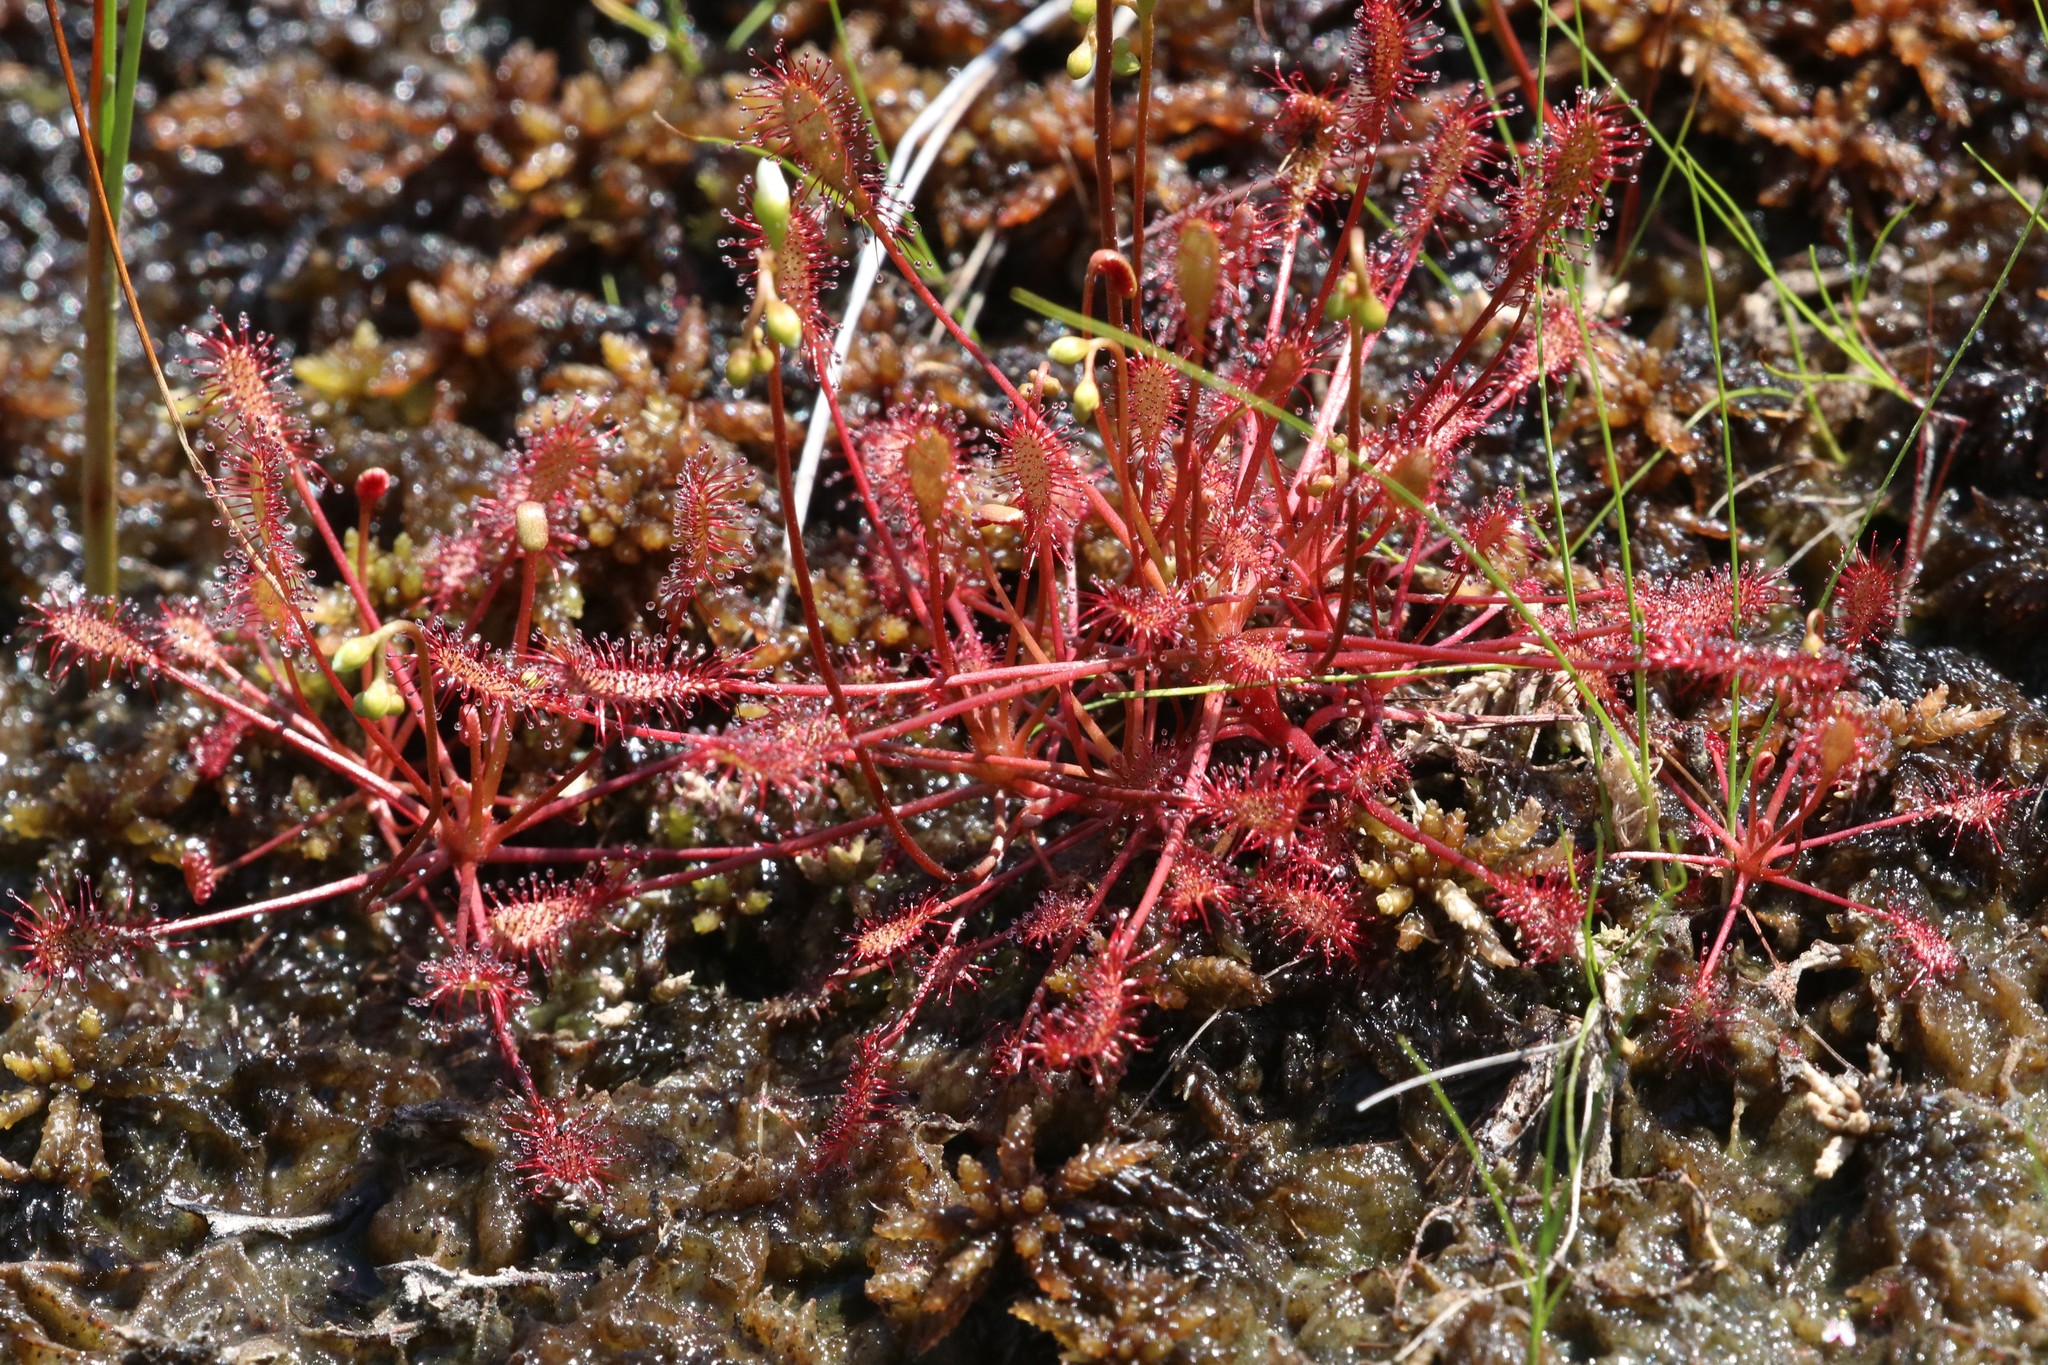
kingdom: Plantae
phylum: Tracheophyta
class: Magnoliopsida
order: Caryophyllales
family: Droseraceae
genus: Drosera
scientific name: Drosera intermedia
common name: Oblong-leaved sundew
